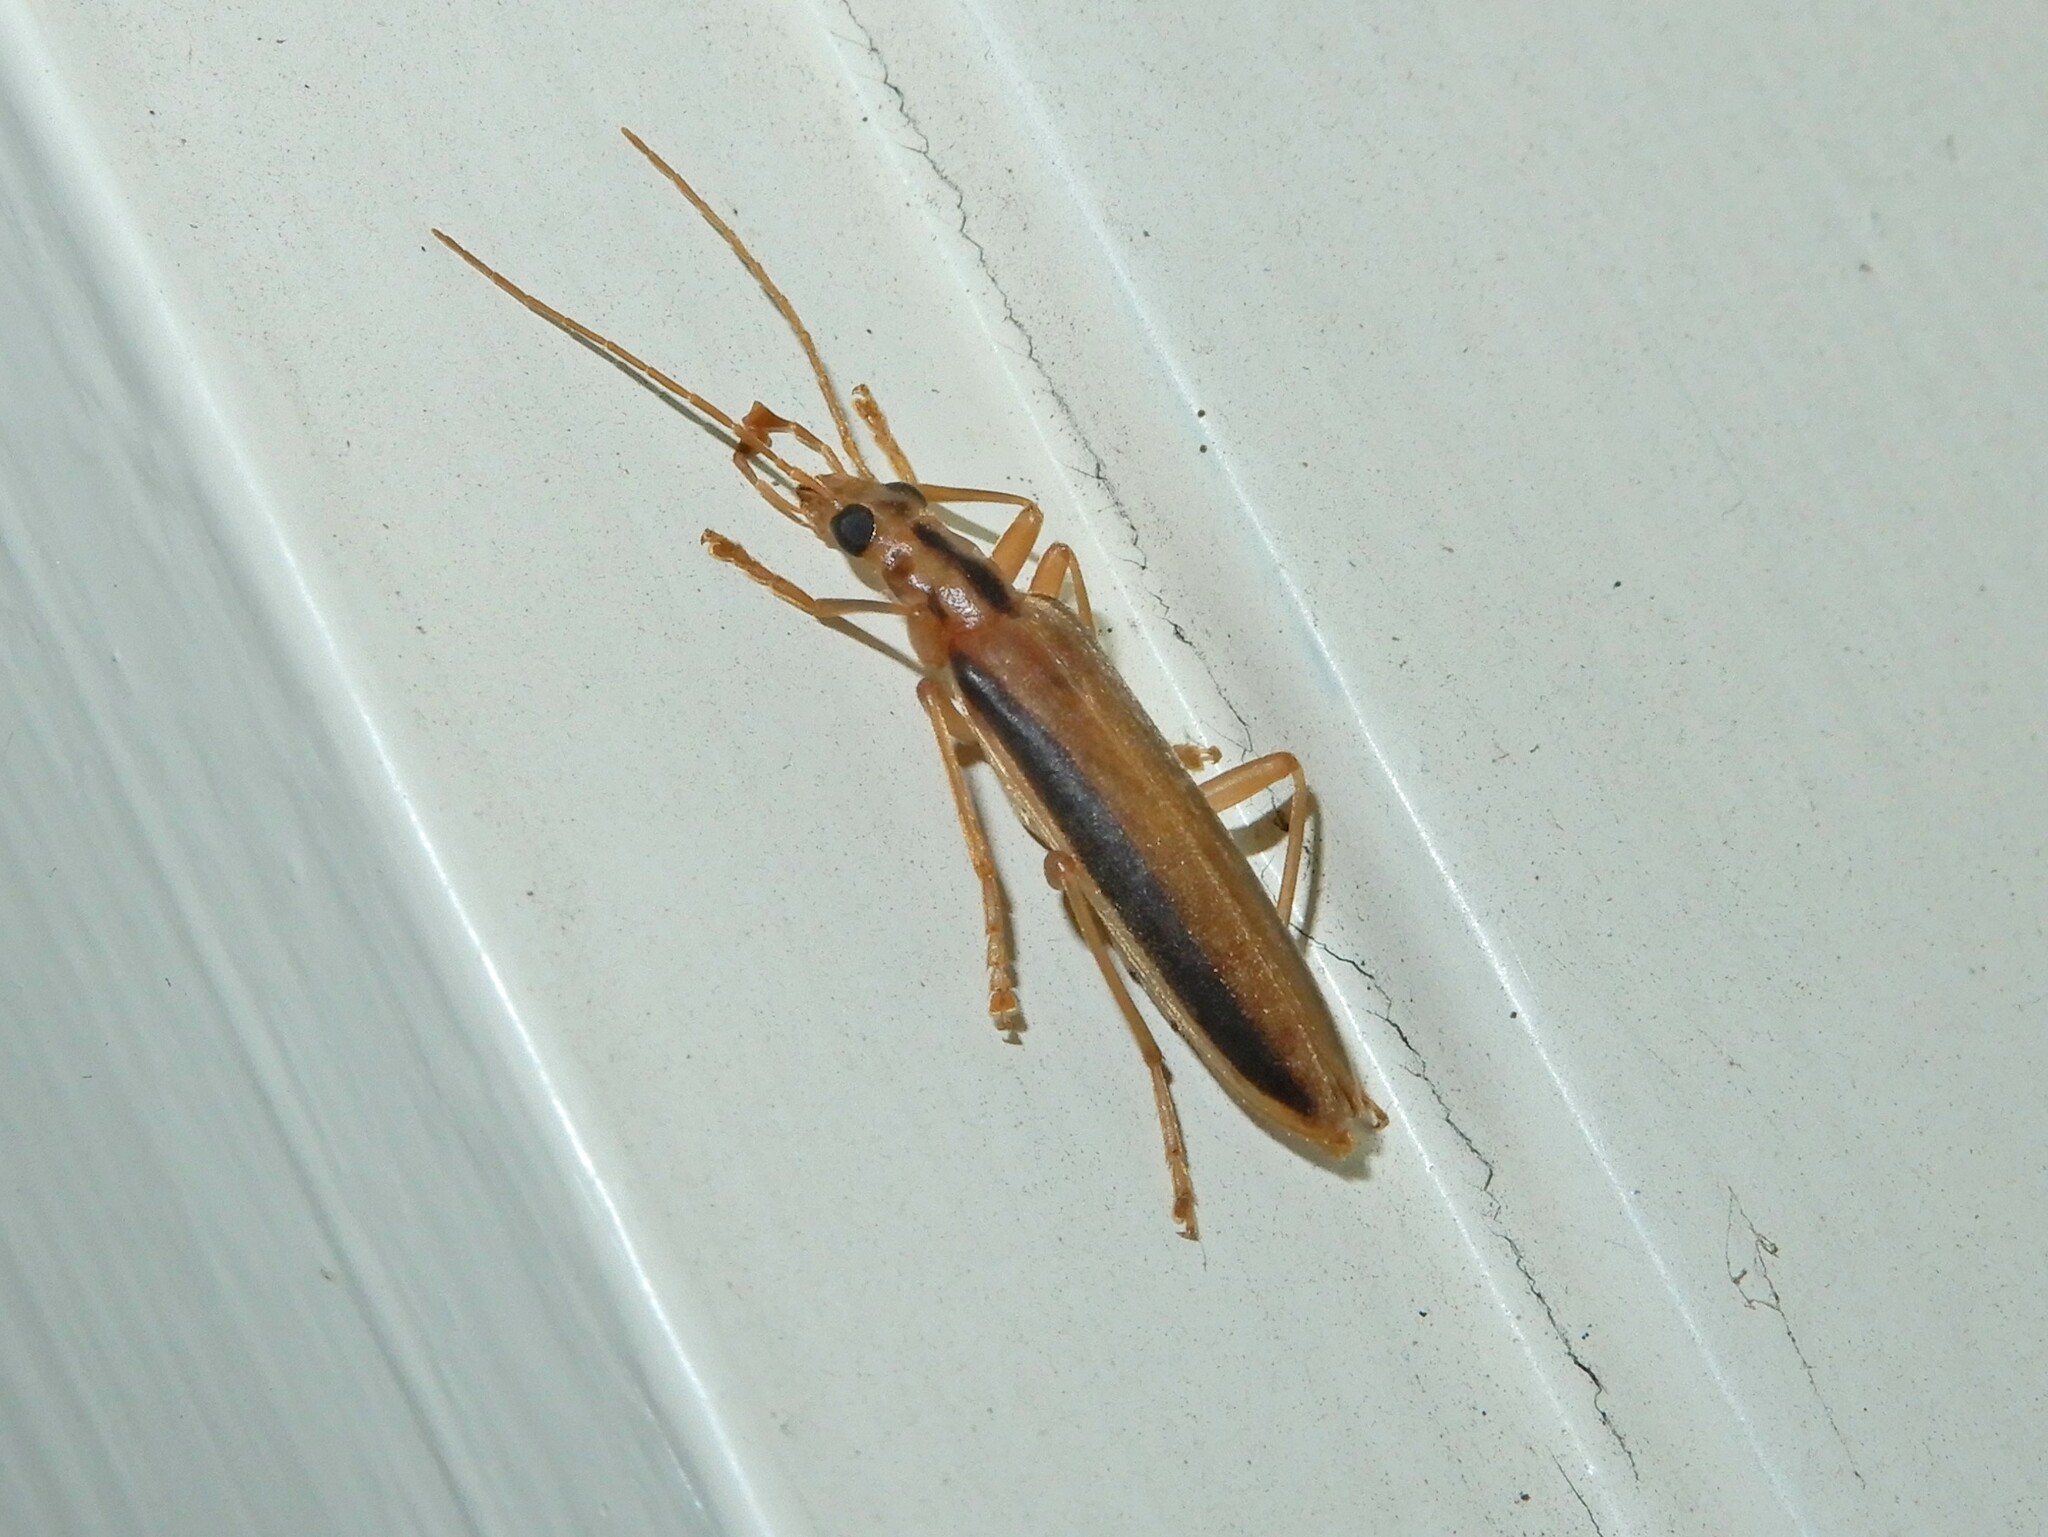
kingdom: Animalia
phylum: Arthropoda
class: Insecta
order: Coleoptera
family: Oedemeridae
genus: Thelyphassa
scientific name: Thelyphassa
